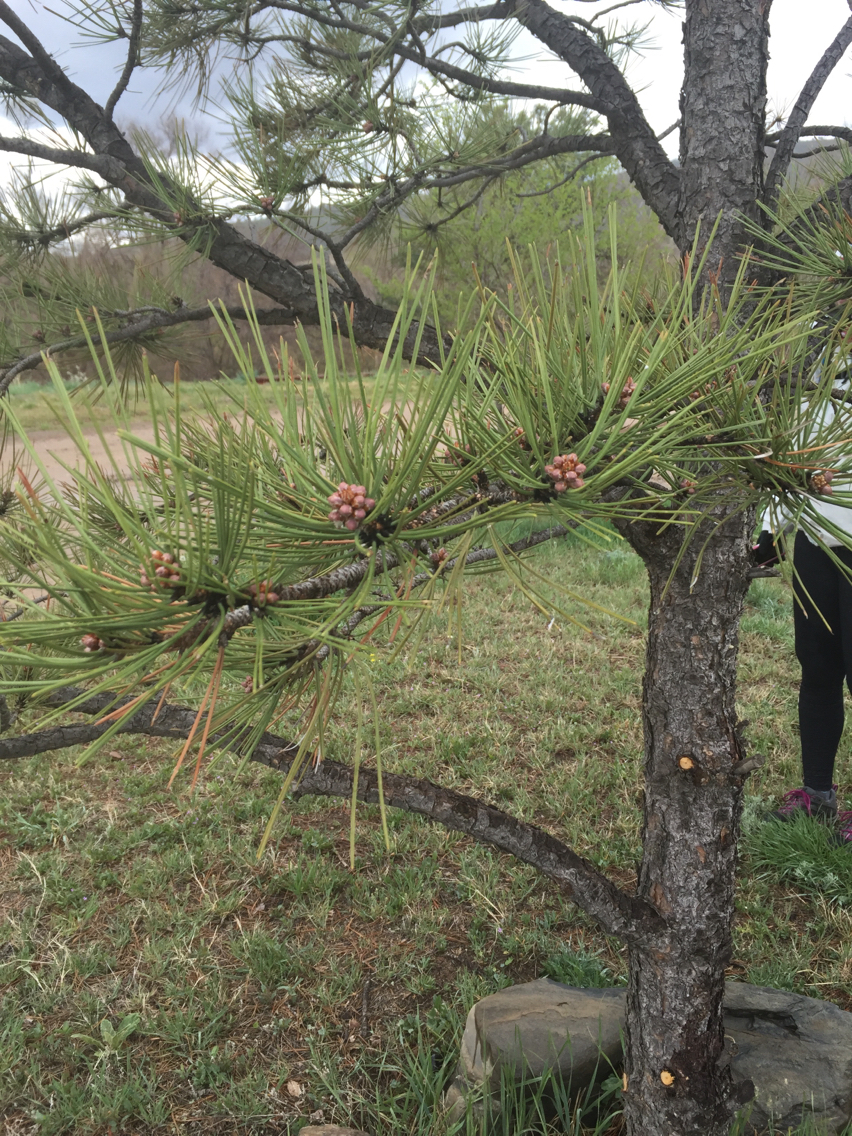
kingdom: Plantae
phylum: Tracheophyta
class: Pinopsida
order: Pinales
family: Pinaceae
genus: Pinus
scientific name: Pinus ponderosa
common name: Western yellow-pine
